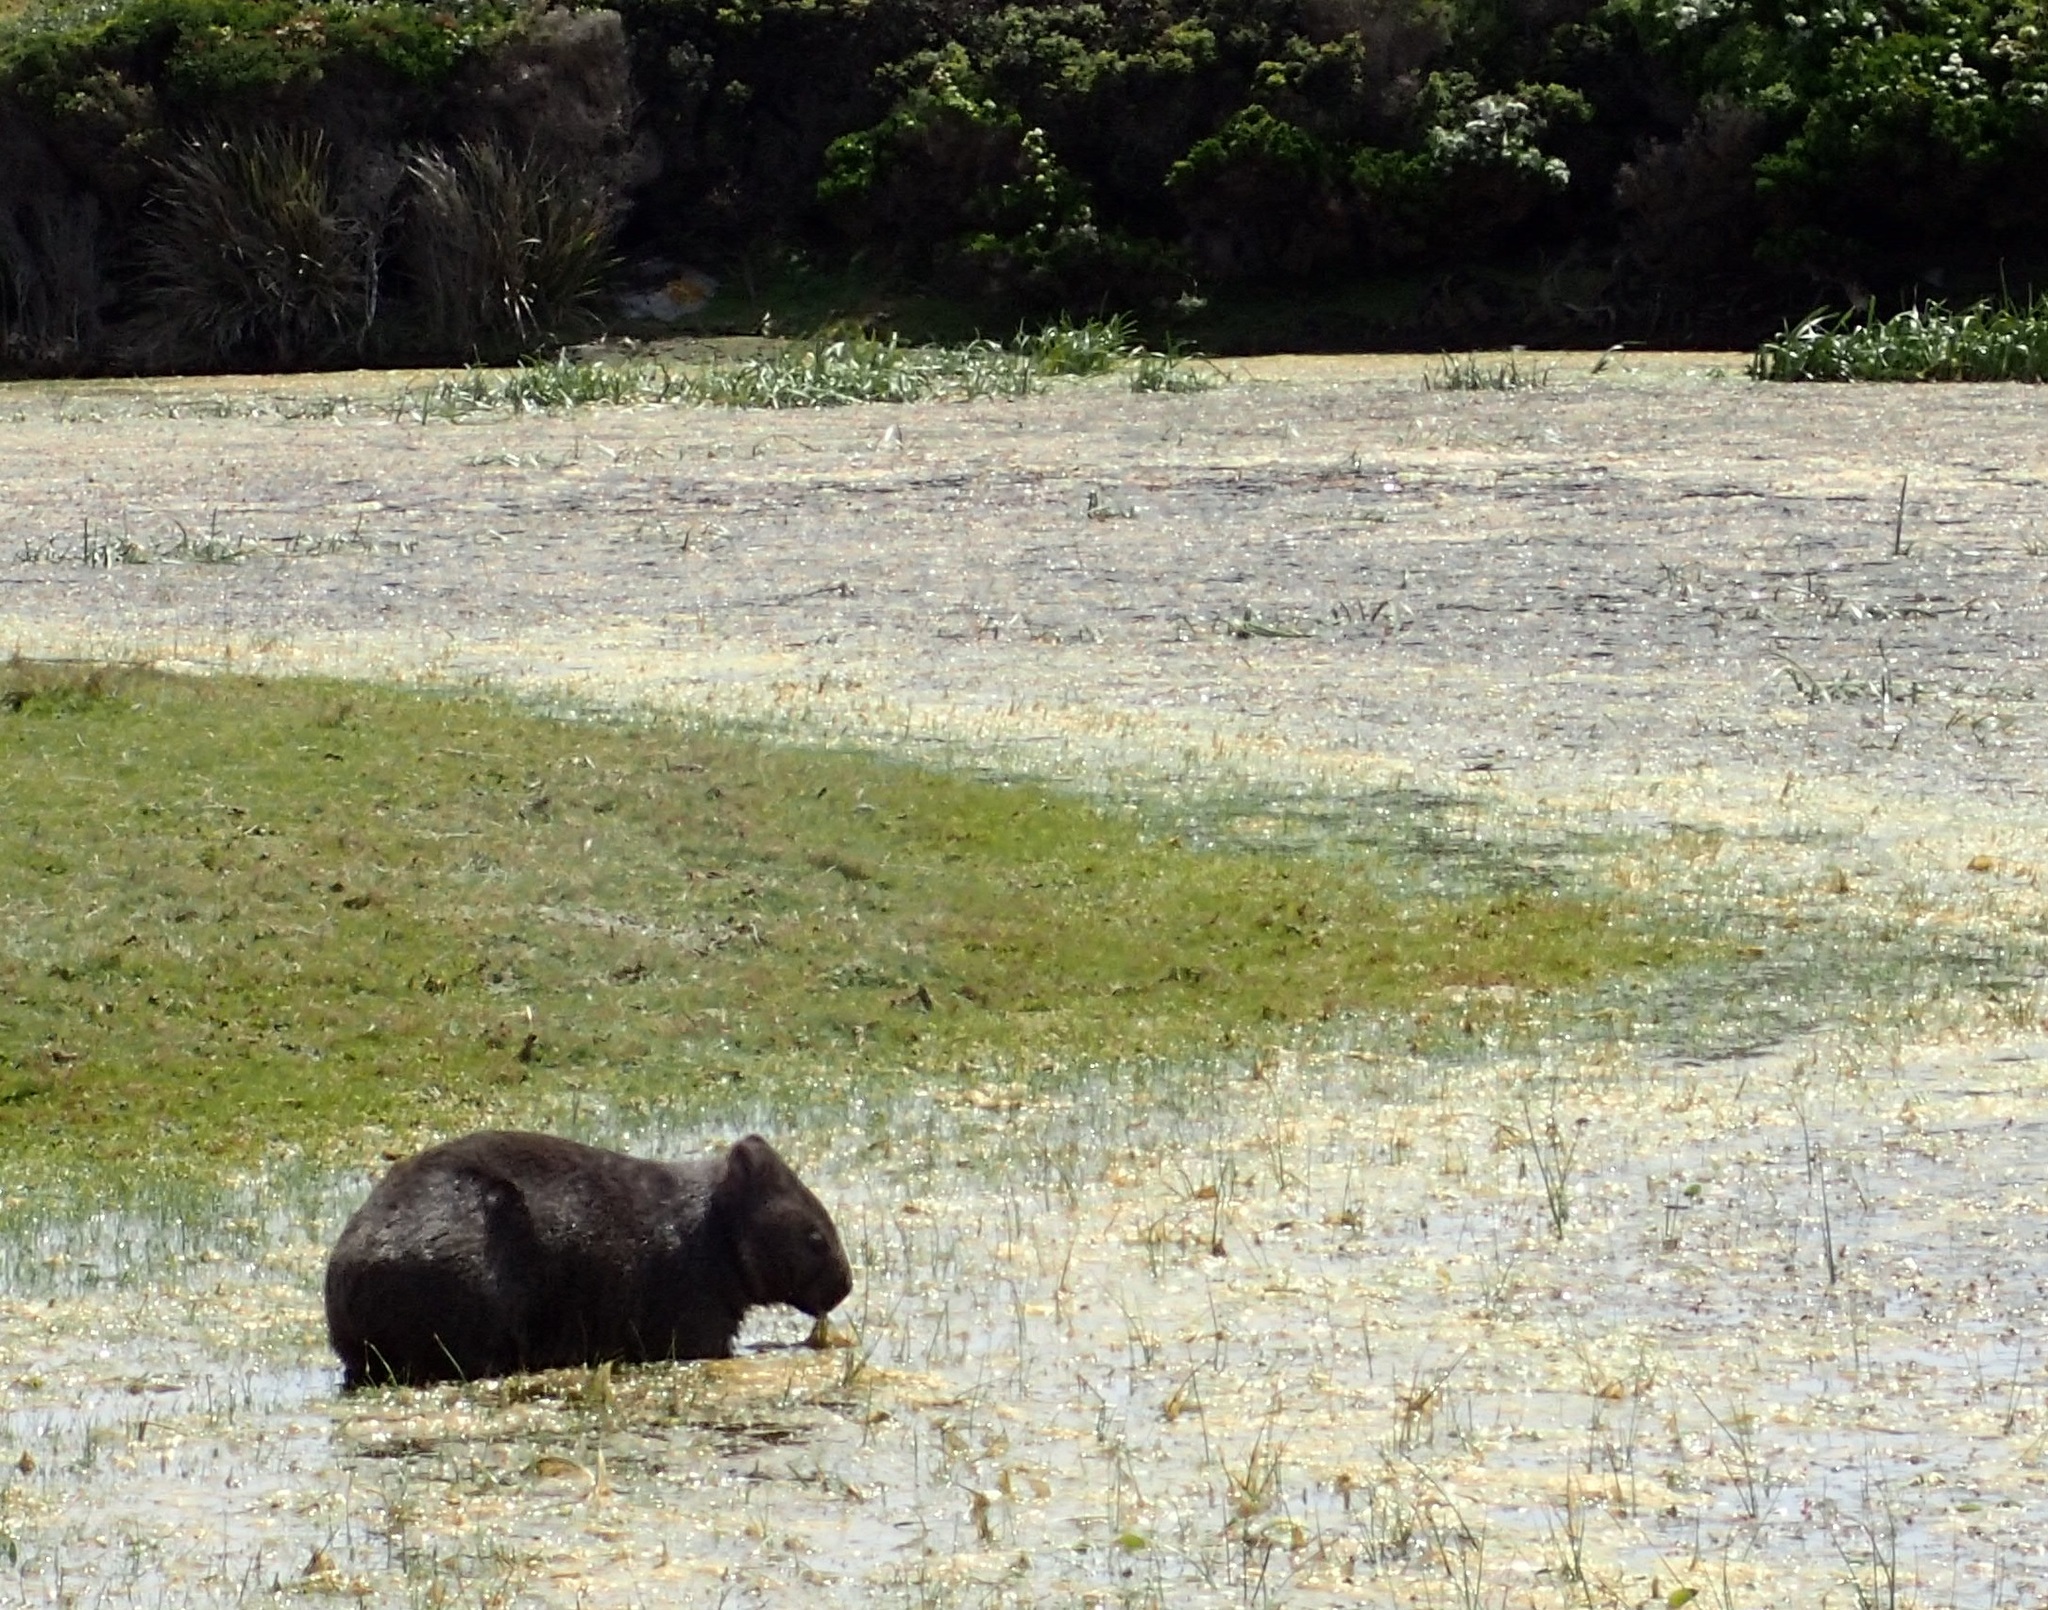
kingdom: Animalia
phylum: Chordata
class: Mammalia
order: Diprotodontia
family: Vombatidae
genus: Vombatus
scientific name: Vombatus ursinus
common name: Common wombat
